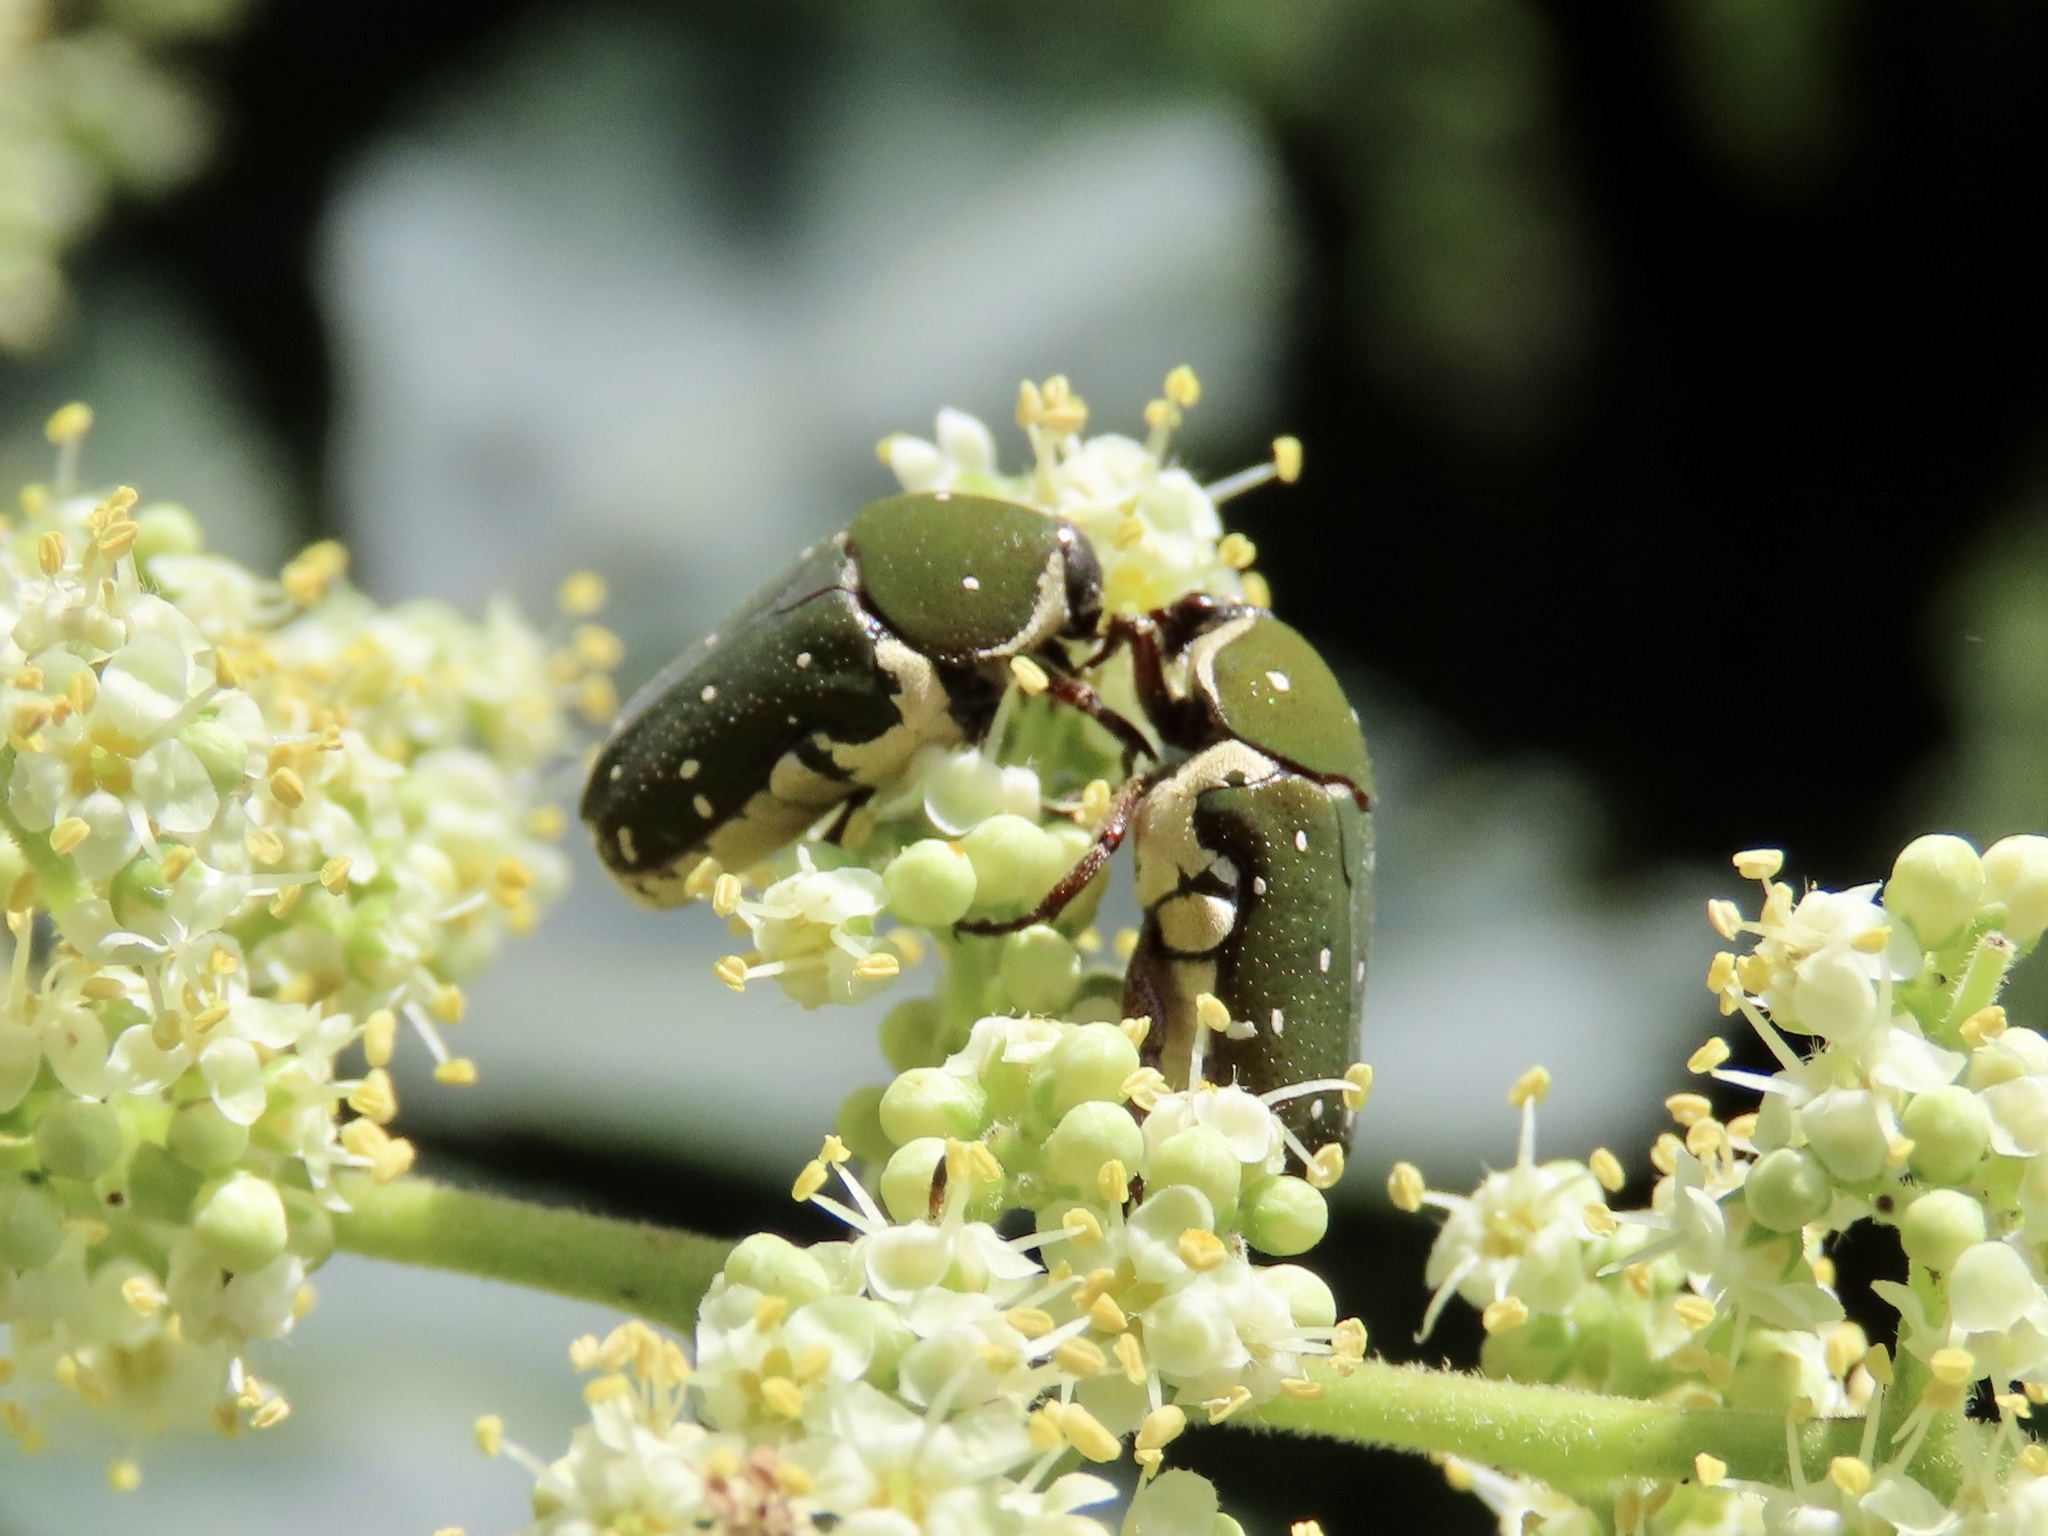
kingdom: Animalia
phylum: Arthropoda
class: Insecta
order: Coleoptera
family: Scarabaeidae
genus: Glycyphana
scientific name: Glycyphana laotica
